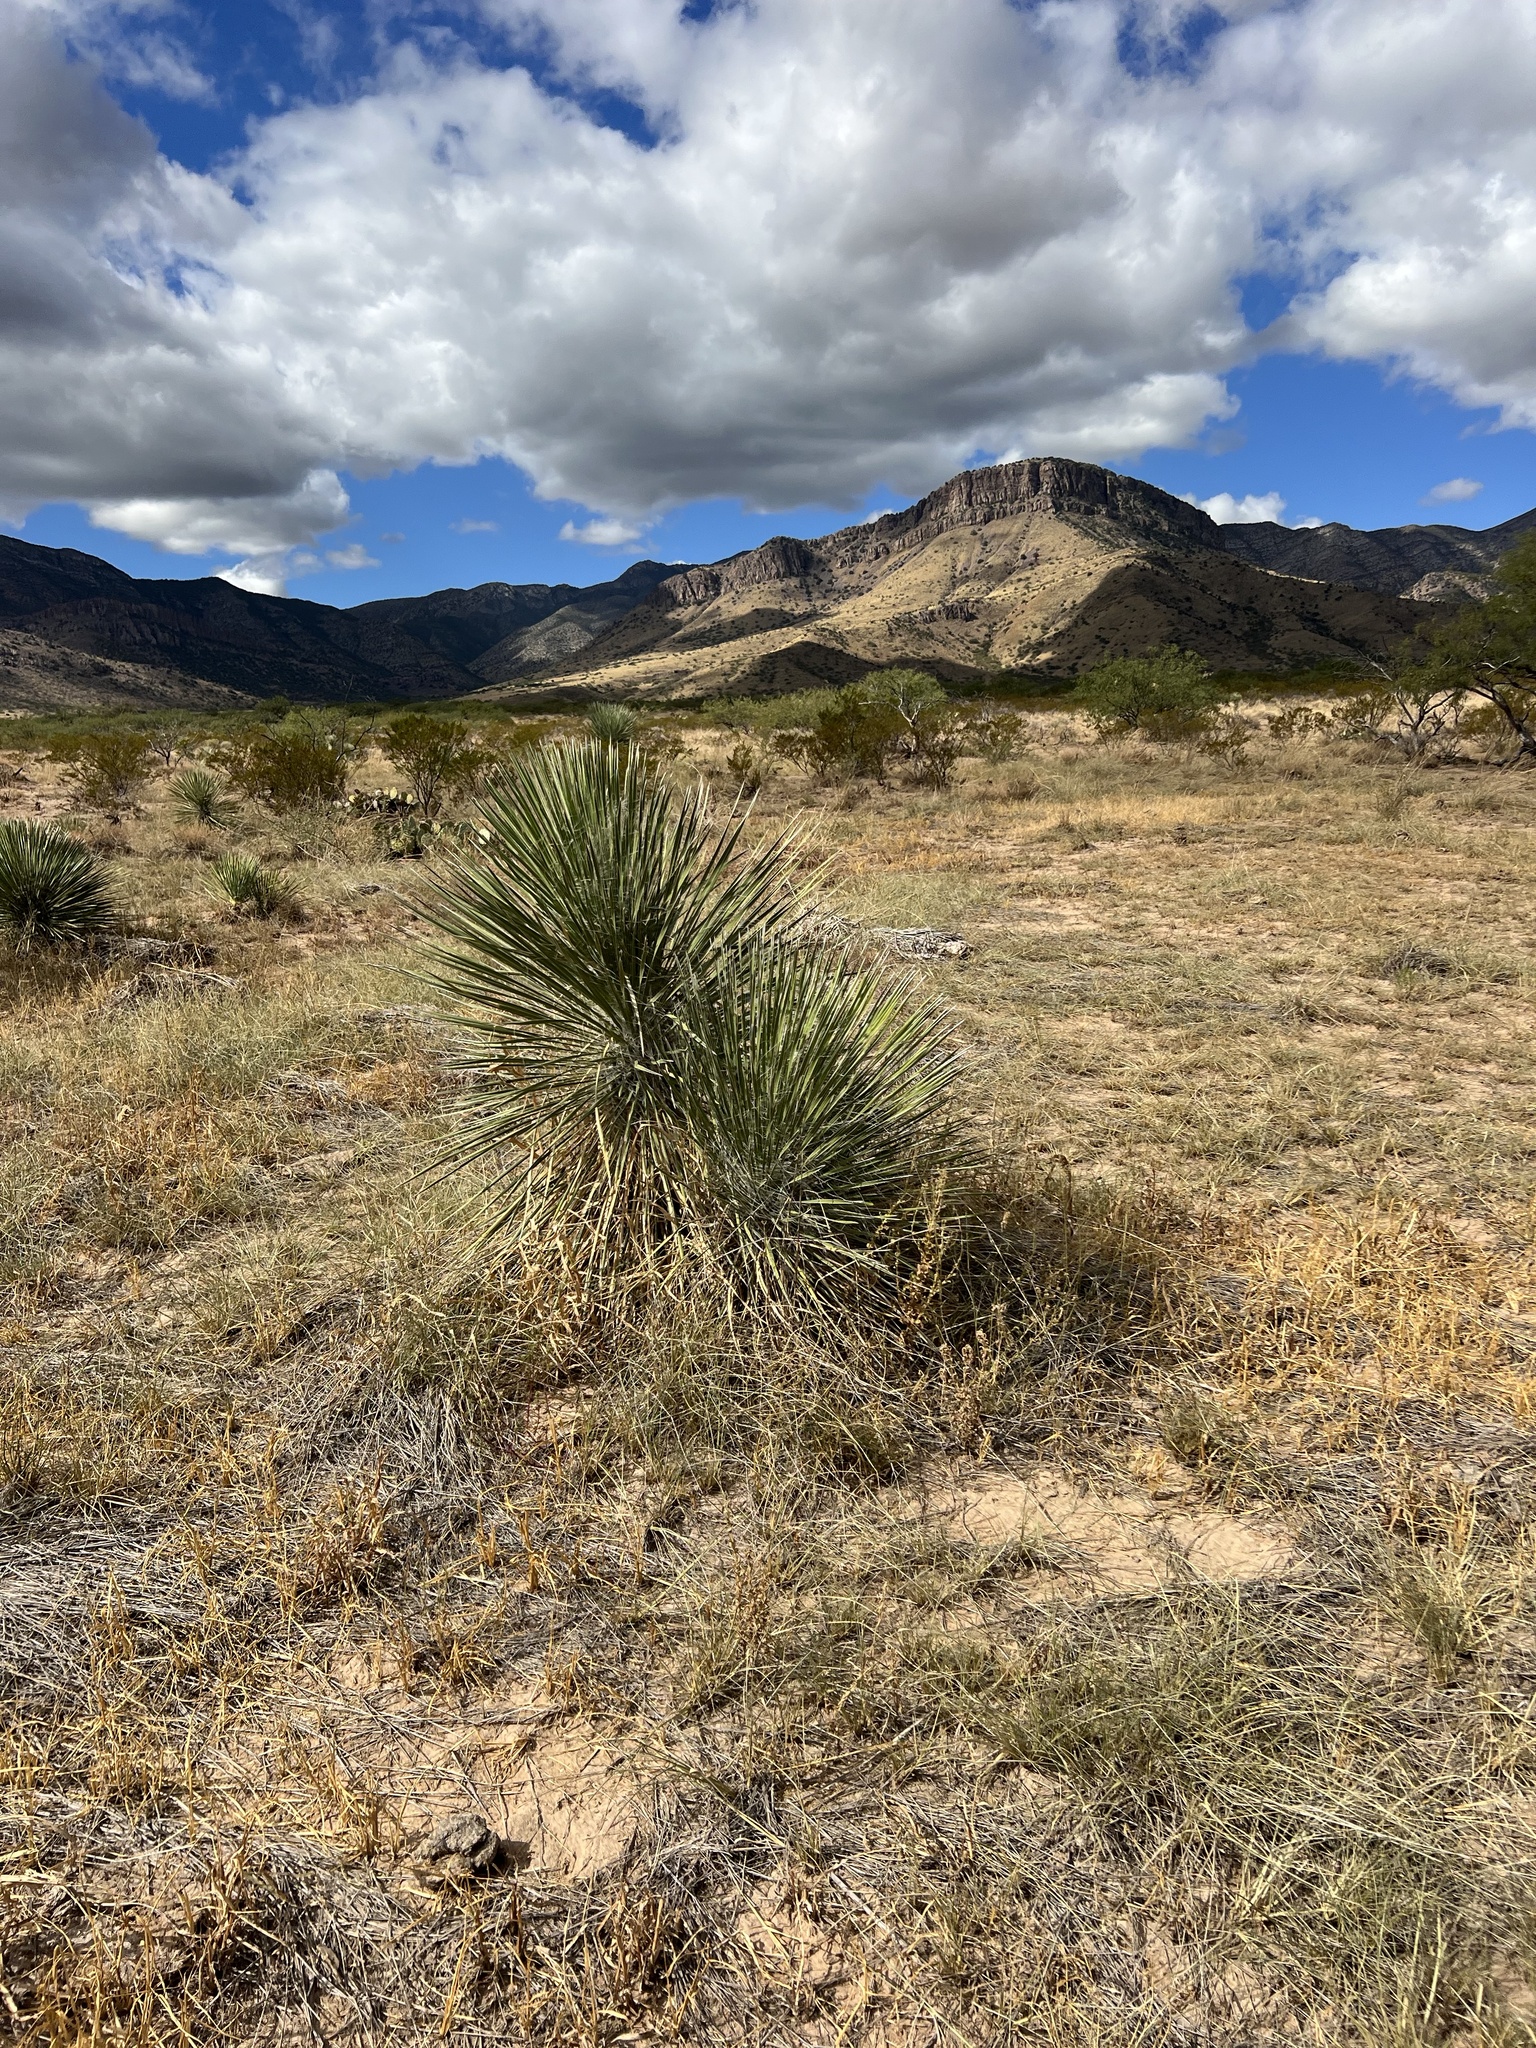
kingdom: Plantae
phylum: Tracheophyta
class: Liliopsida
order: Asparagales
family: Asparagaceae
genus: Yucca
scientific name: Yucca elata
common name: Palmella
